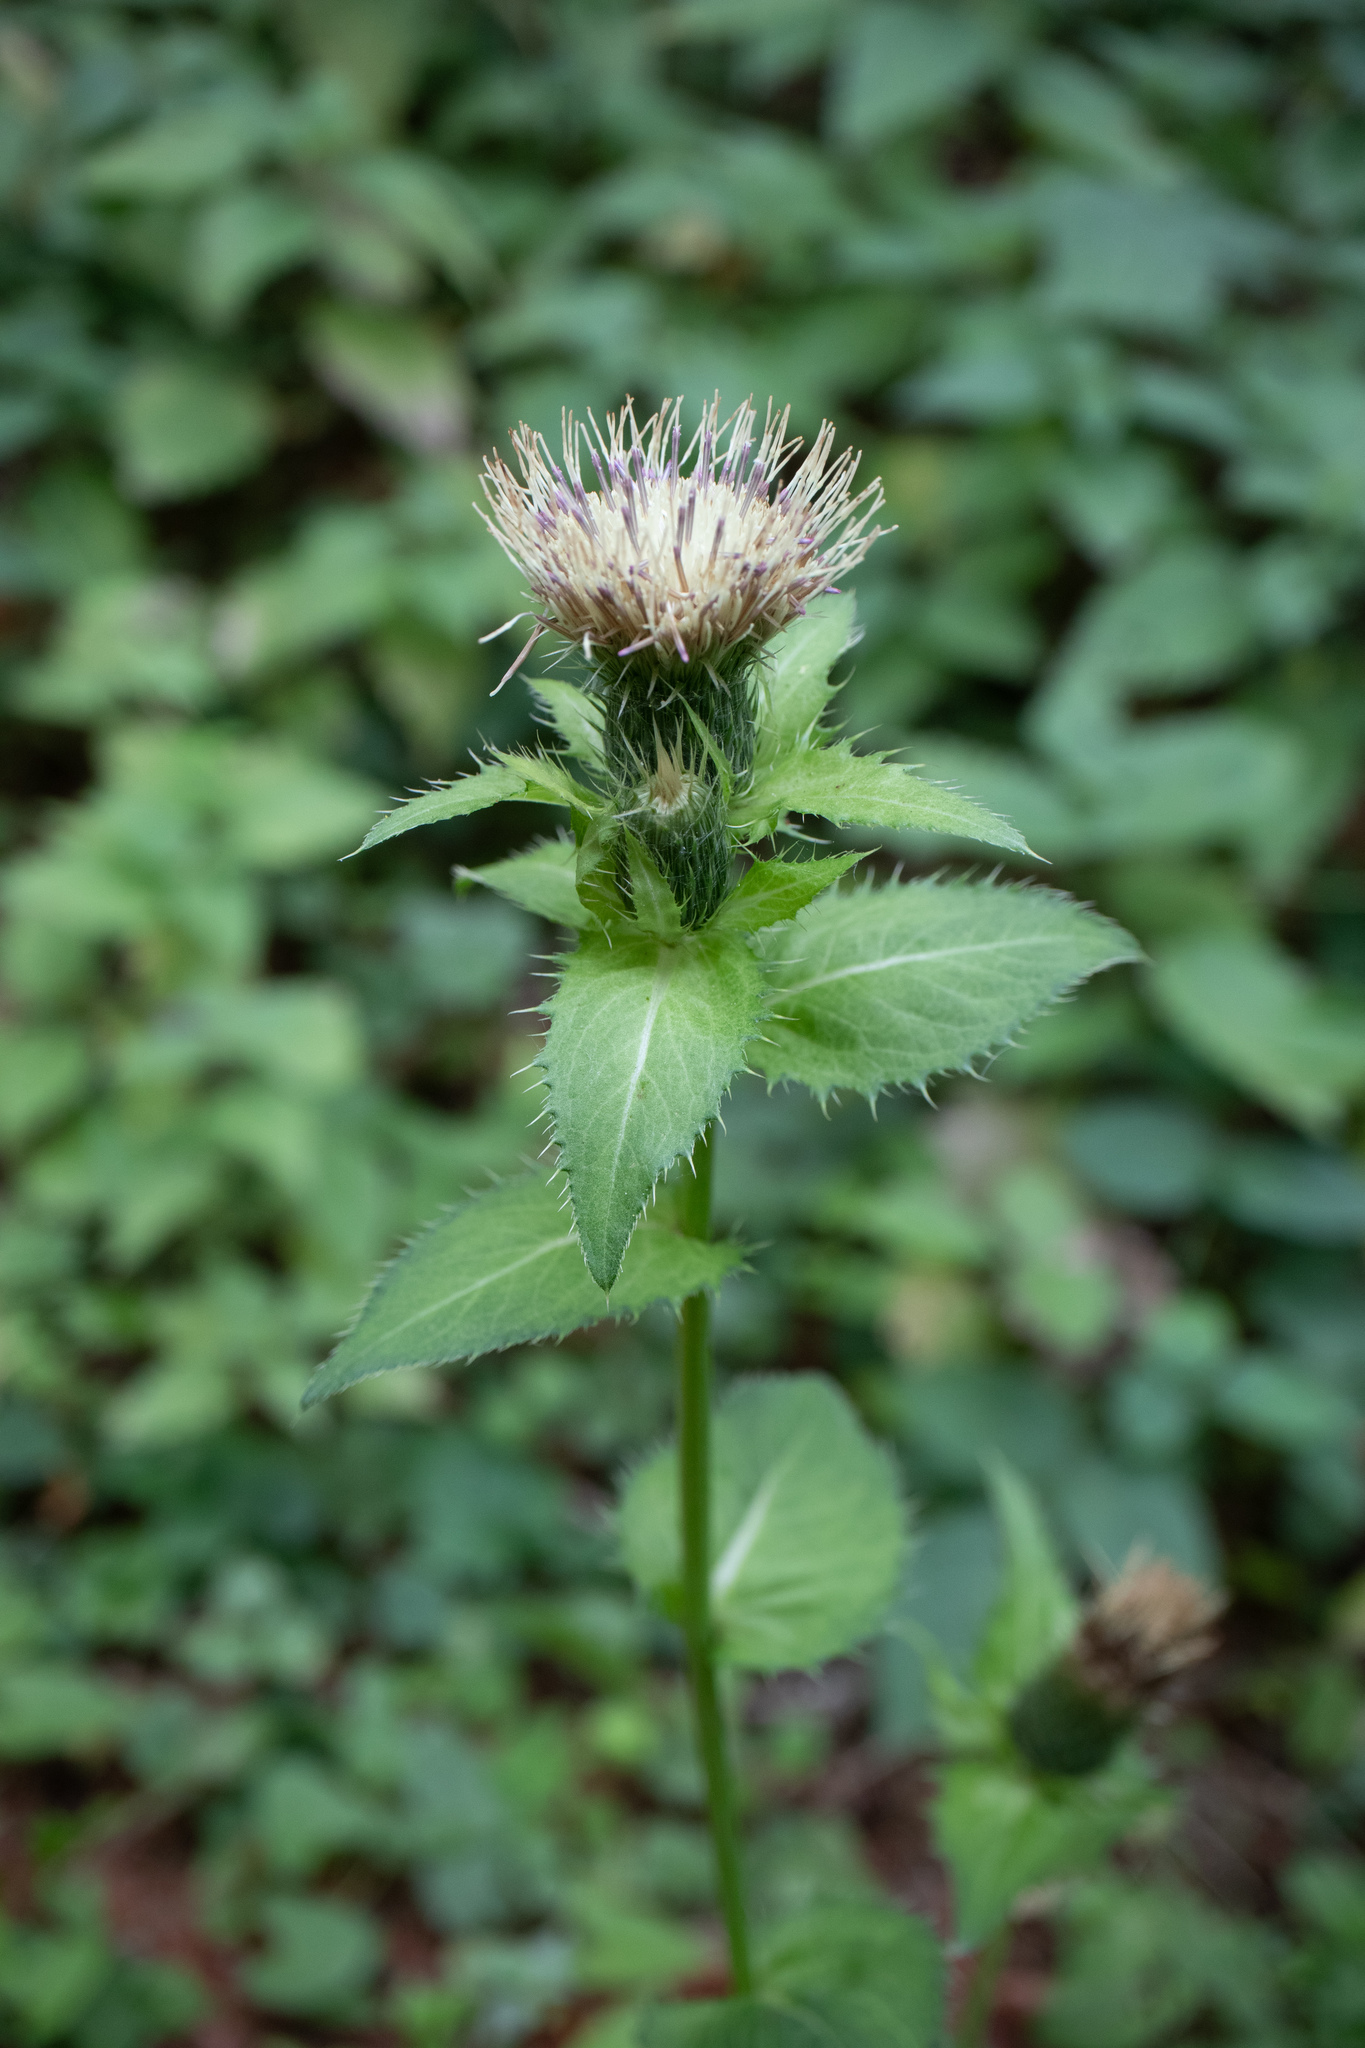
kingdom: Plantae
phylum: Tracheophyta
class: Magnoliopsida
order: Asterales
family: Asteraceae
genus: Cirsium
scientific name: Cirsium oleraceum
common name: Cabbage thistle
